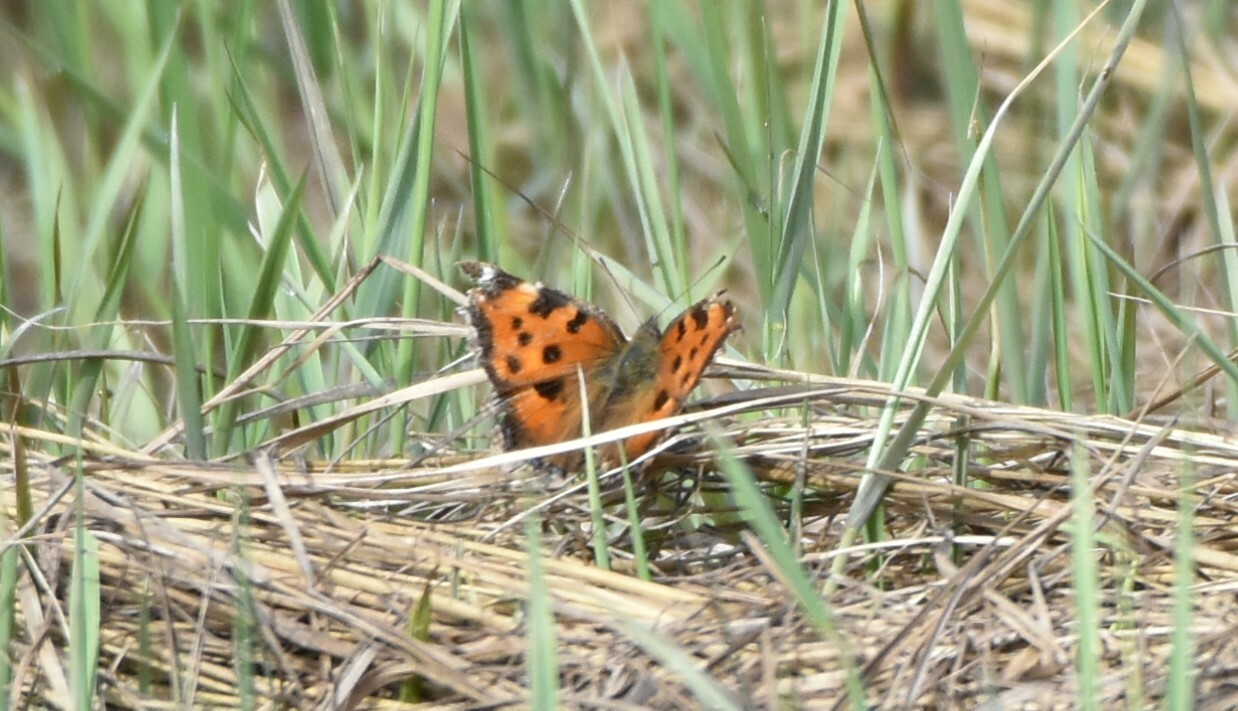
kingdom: Animalia
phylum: Arthropoda
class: Insecta
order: Lepidoptera
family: Nymphalidae
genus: Nymphalis
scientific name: Nymphalis xanthomelas
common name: Scarce tortoiseshell
